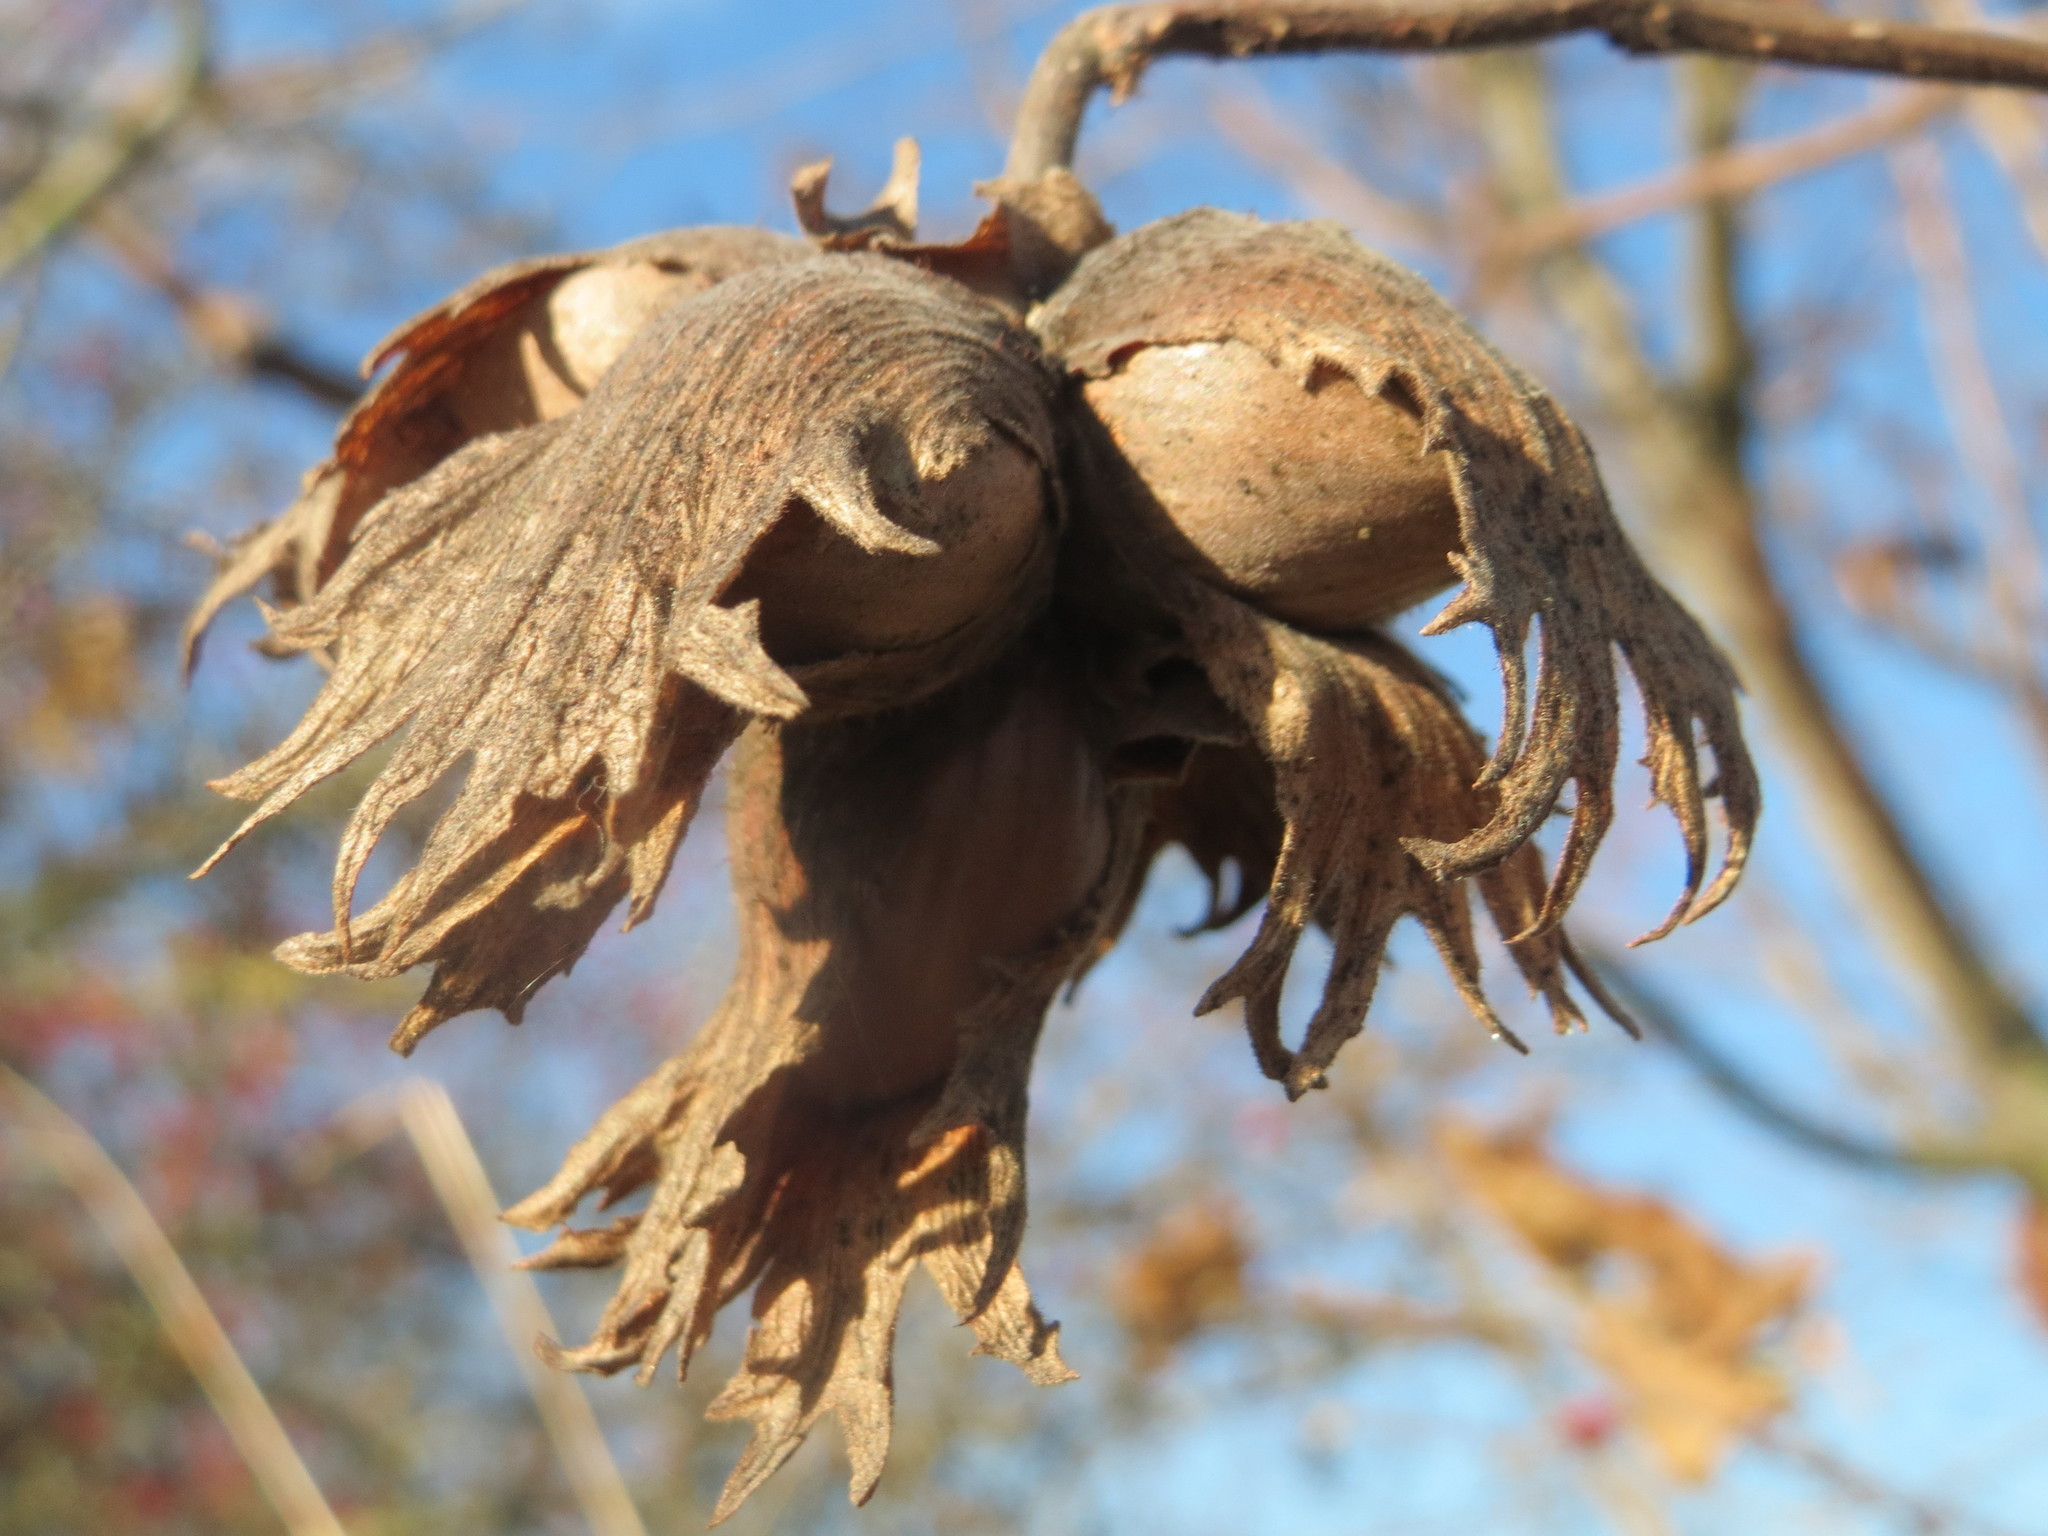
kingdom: Plantae
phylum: Tracheophyta
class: Magnoliopsida
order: Fagales
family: Betulaceae
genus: Corylus
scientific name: Corylus avellana
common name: European hazel
